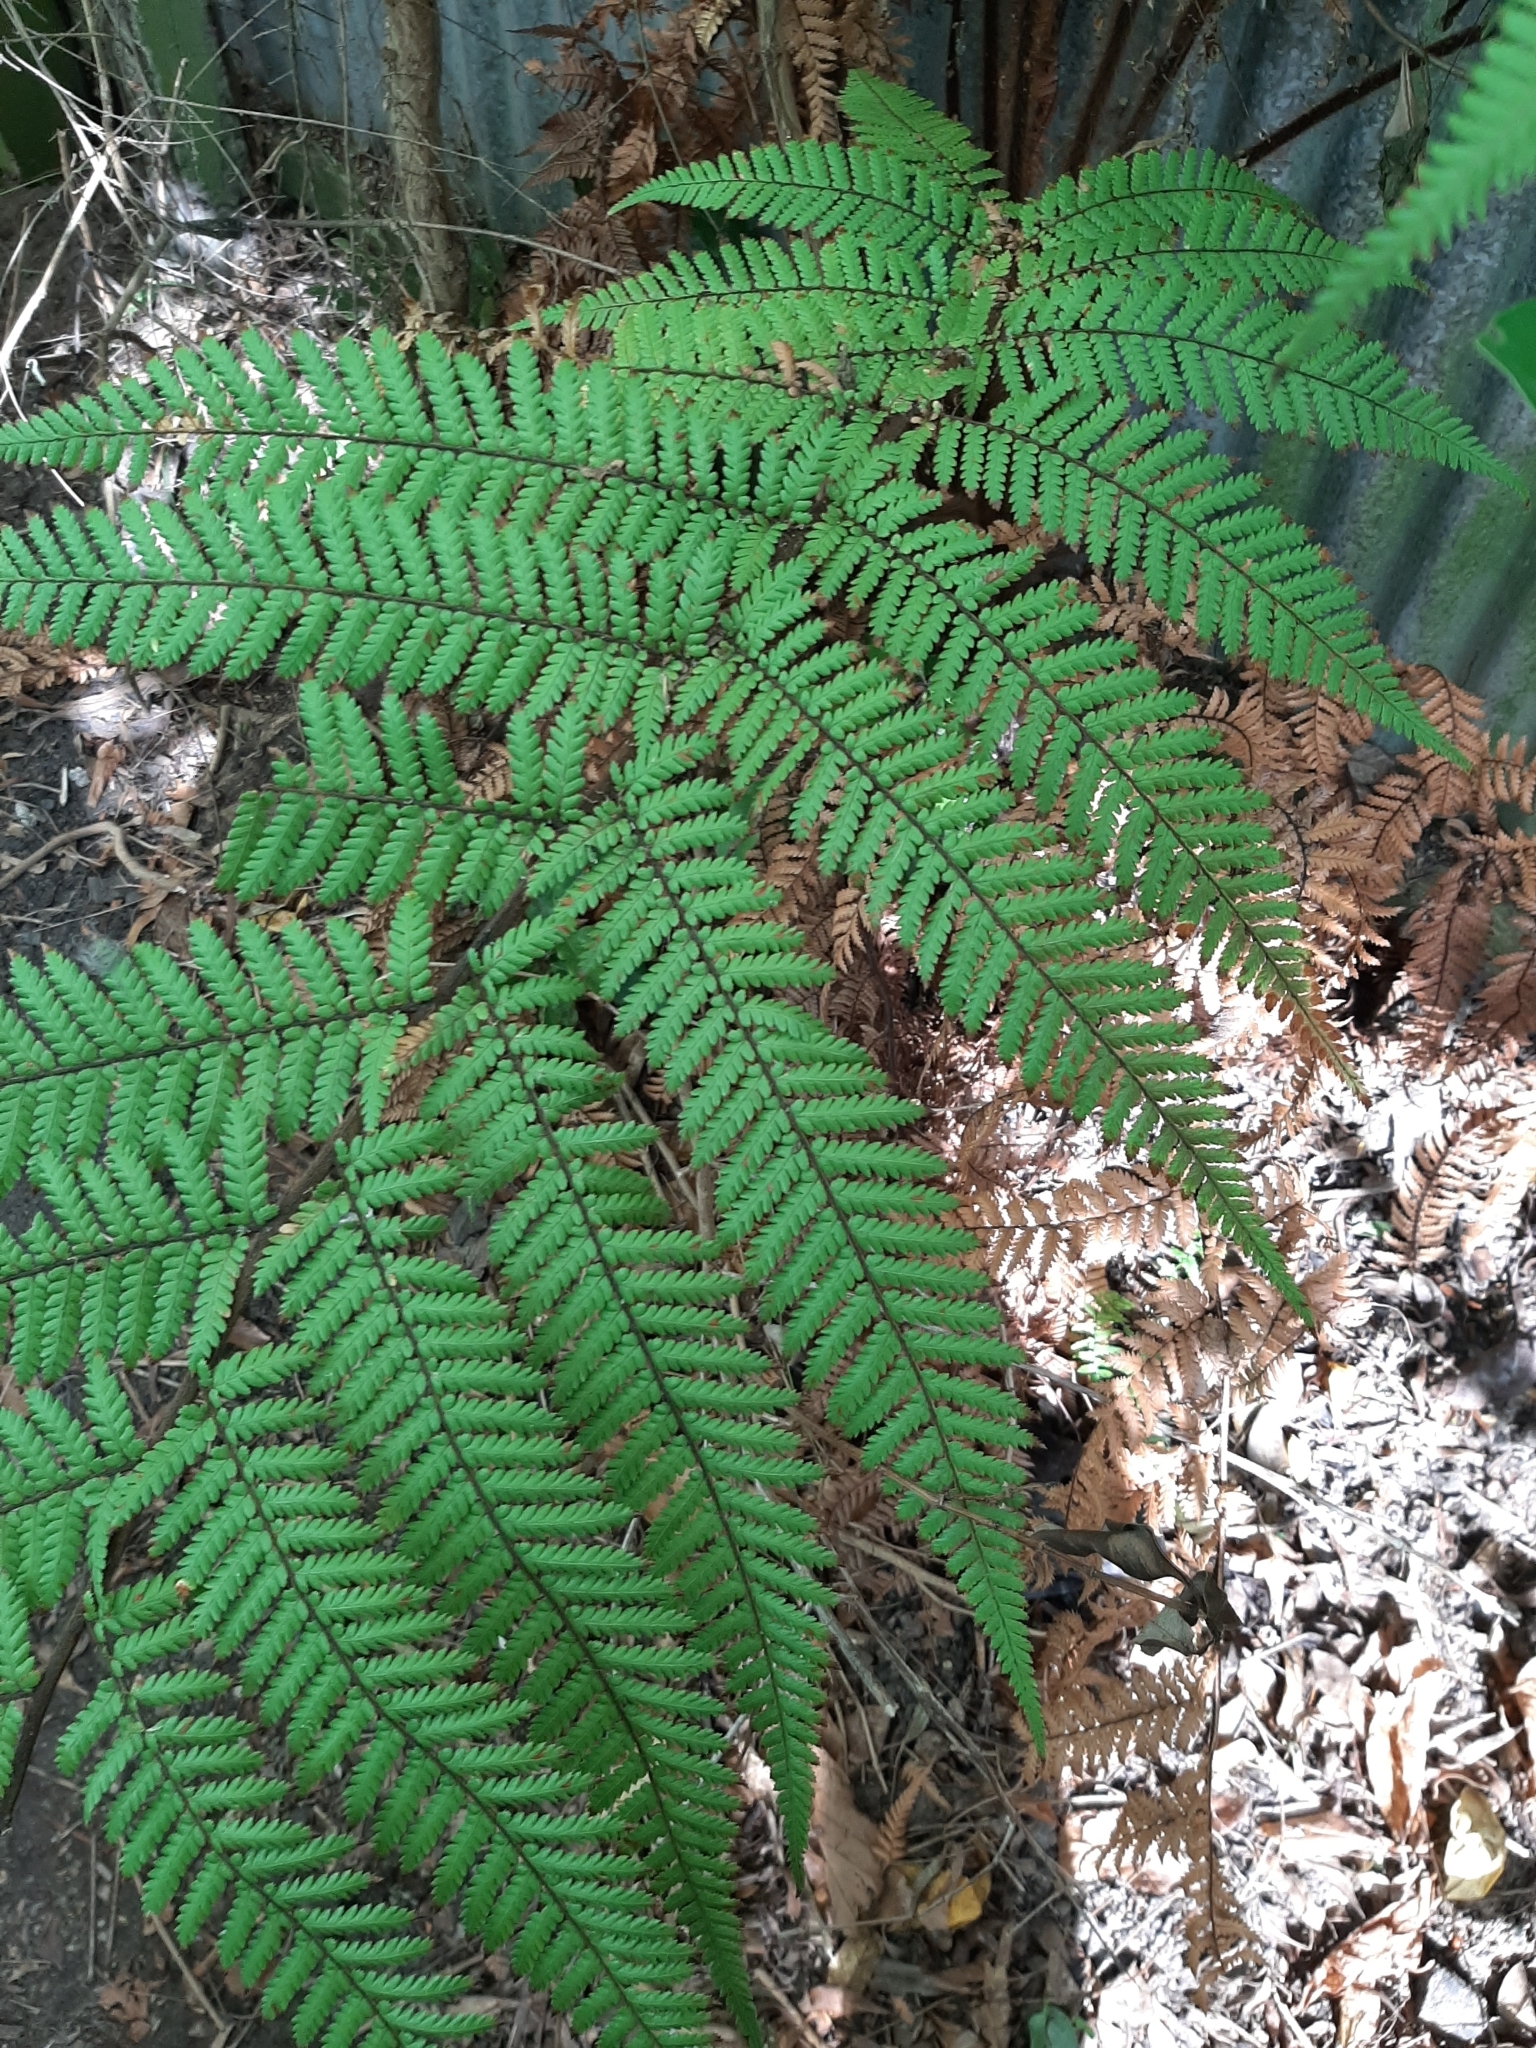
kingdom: Plantae
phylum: Tracheophyta
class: Polypodiopsida
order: Cyatheales
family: Dicksoniaceae
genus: Dicksonia
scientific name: Dicksonia squarrosa
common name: Hard treefern
